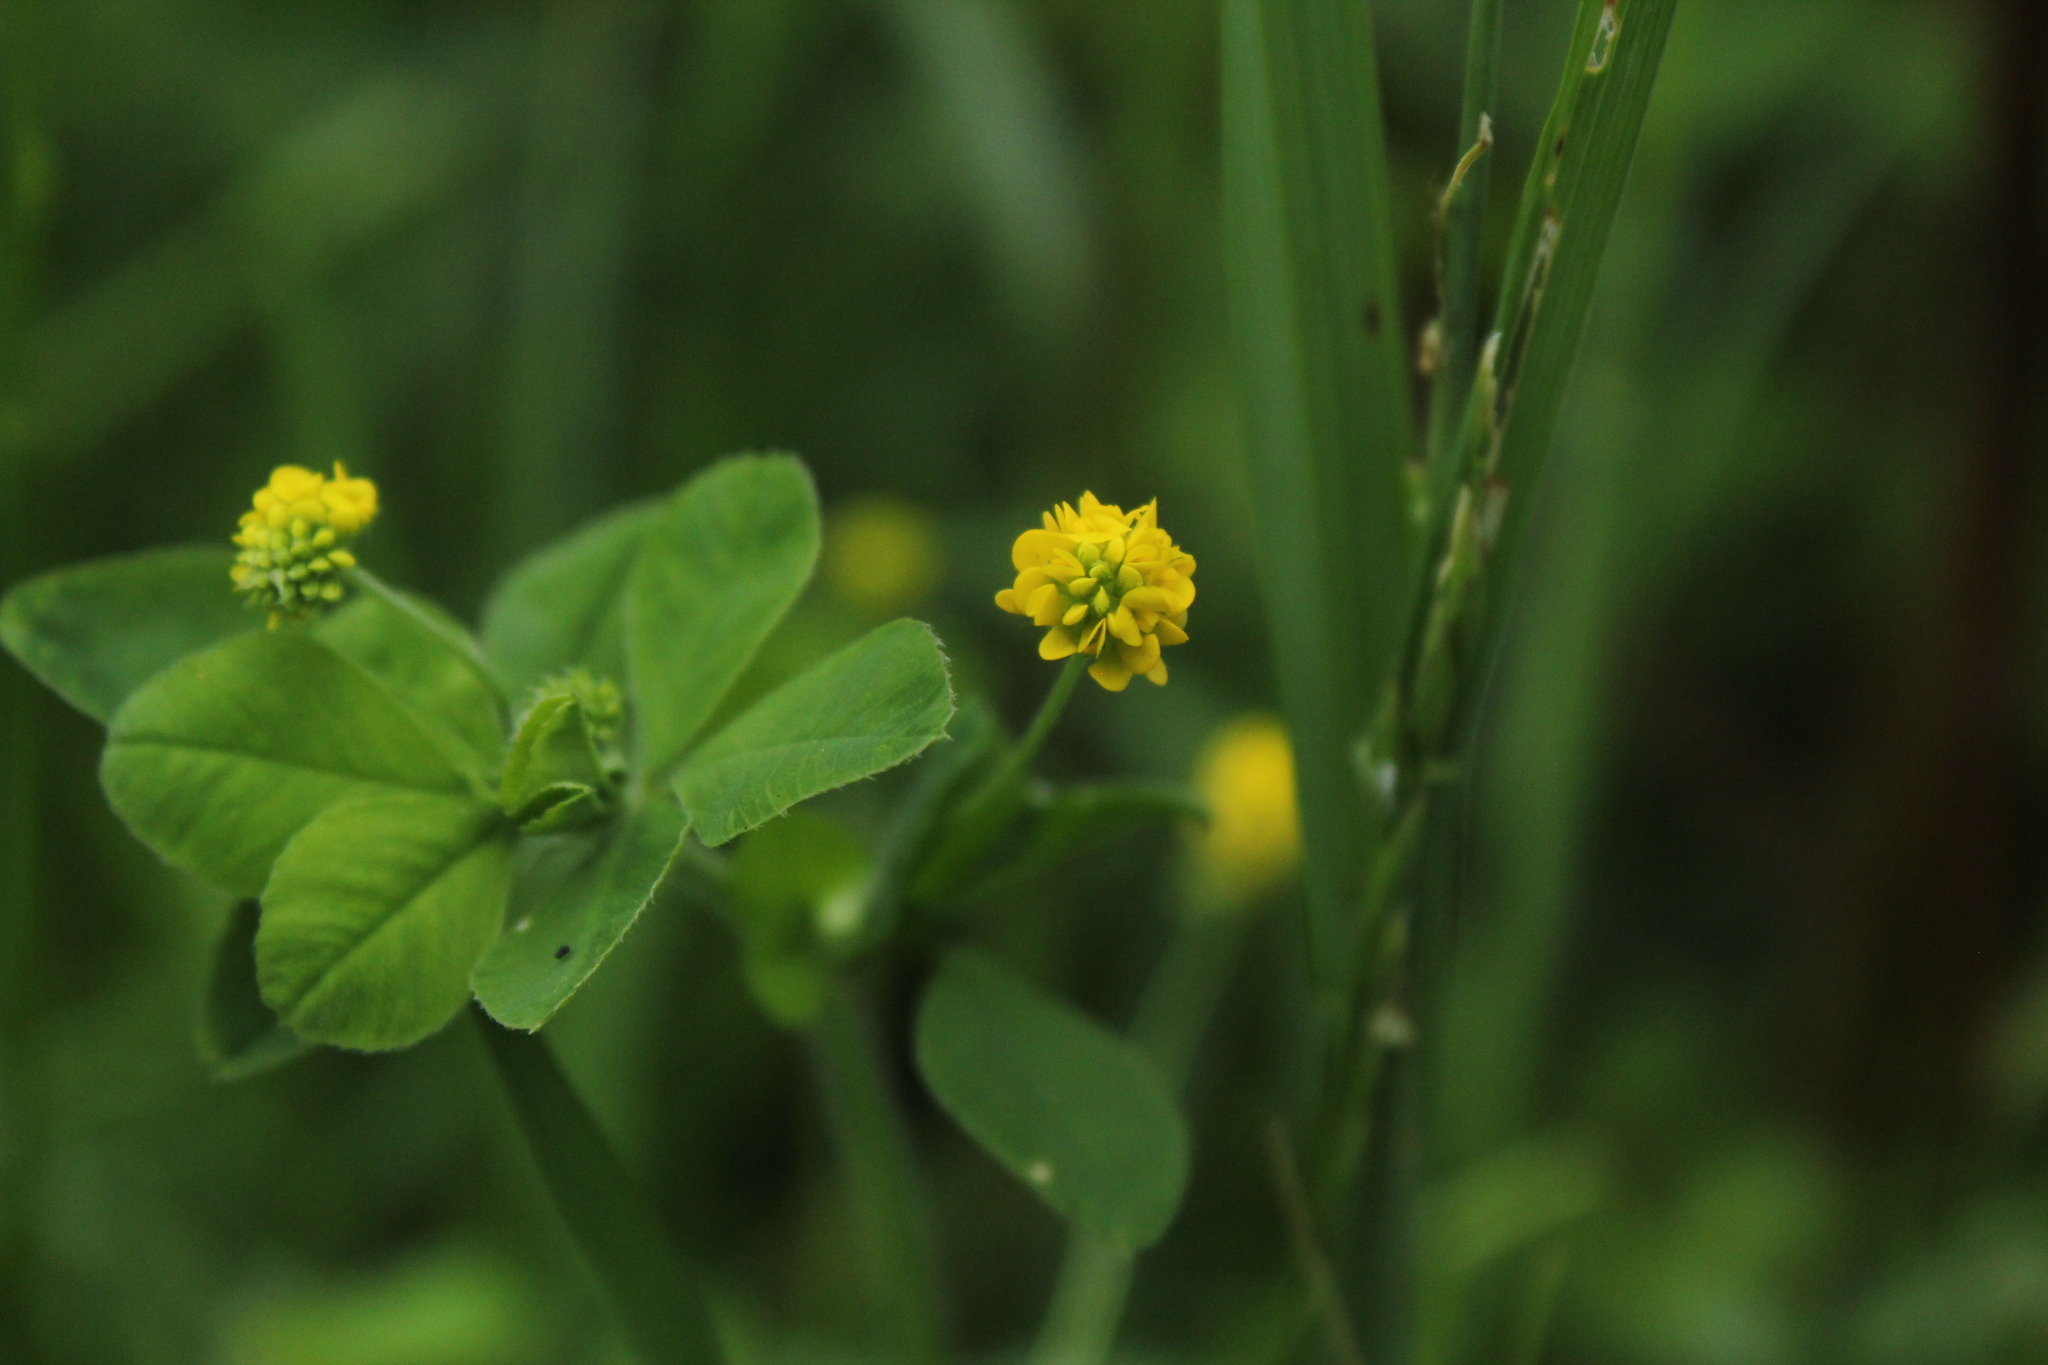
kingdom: Plantae
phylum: Tracheophyta
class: Magnoliopsida
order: Fabales
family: Fabaceae
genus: Medicago
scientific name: Medicago lupulina
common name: Black medick
